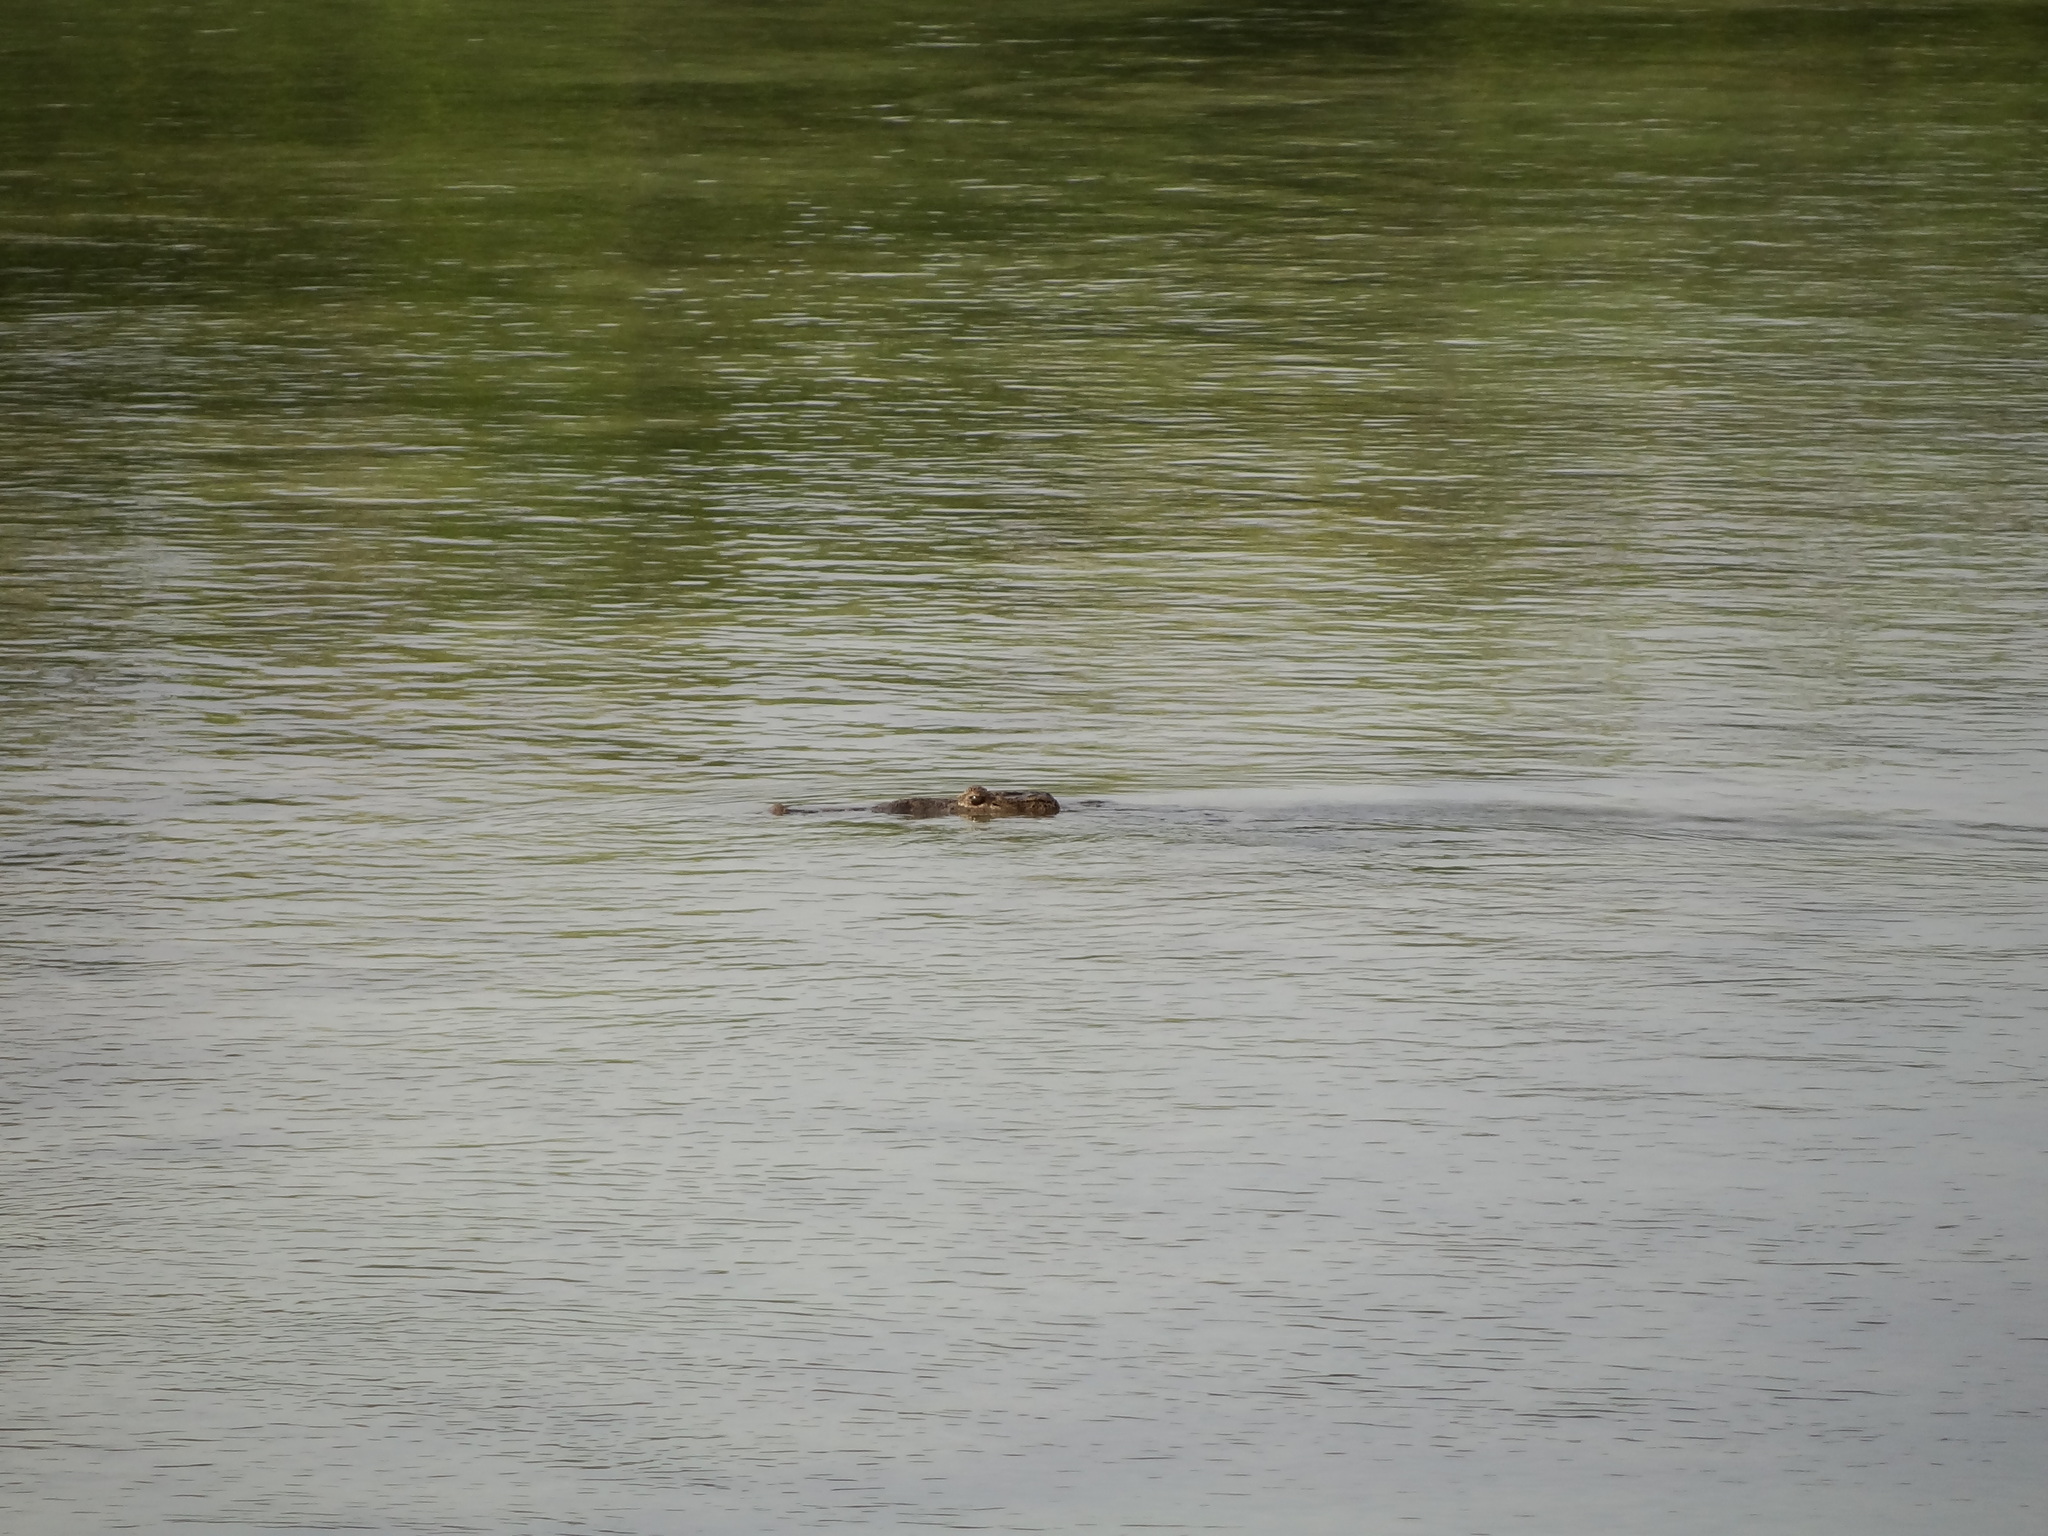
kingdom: Animalia
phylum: Chordata
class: Crocodylia
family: Crocodylidae
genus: Crocodylus
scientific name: Crocodylus moreletii
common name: Morelet's crocodile
